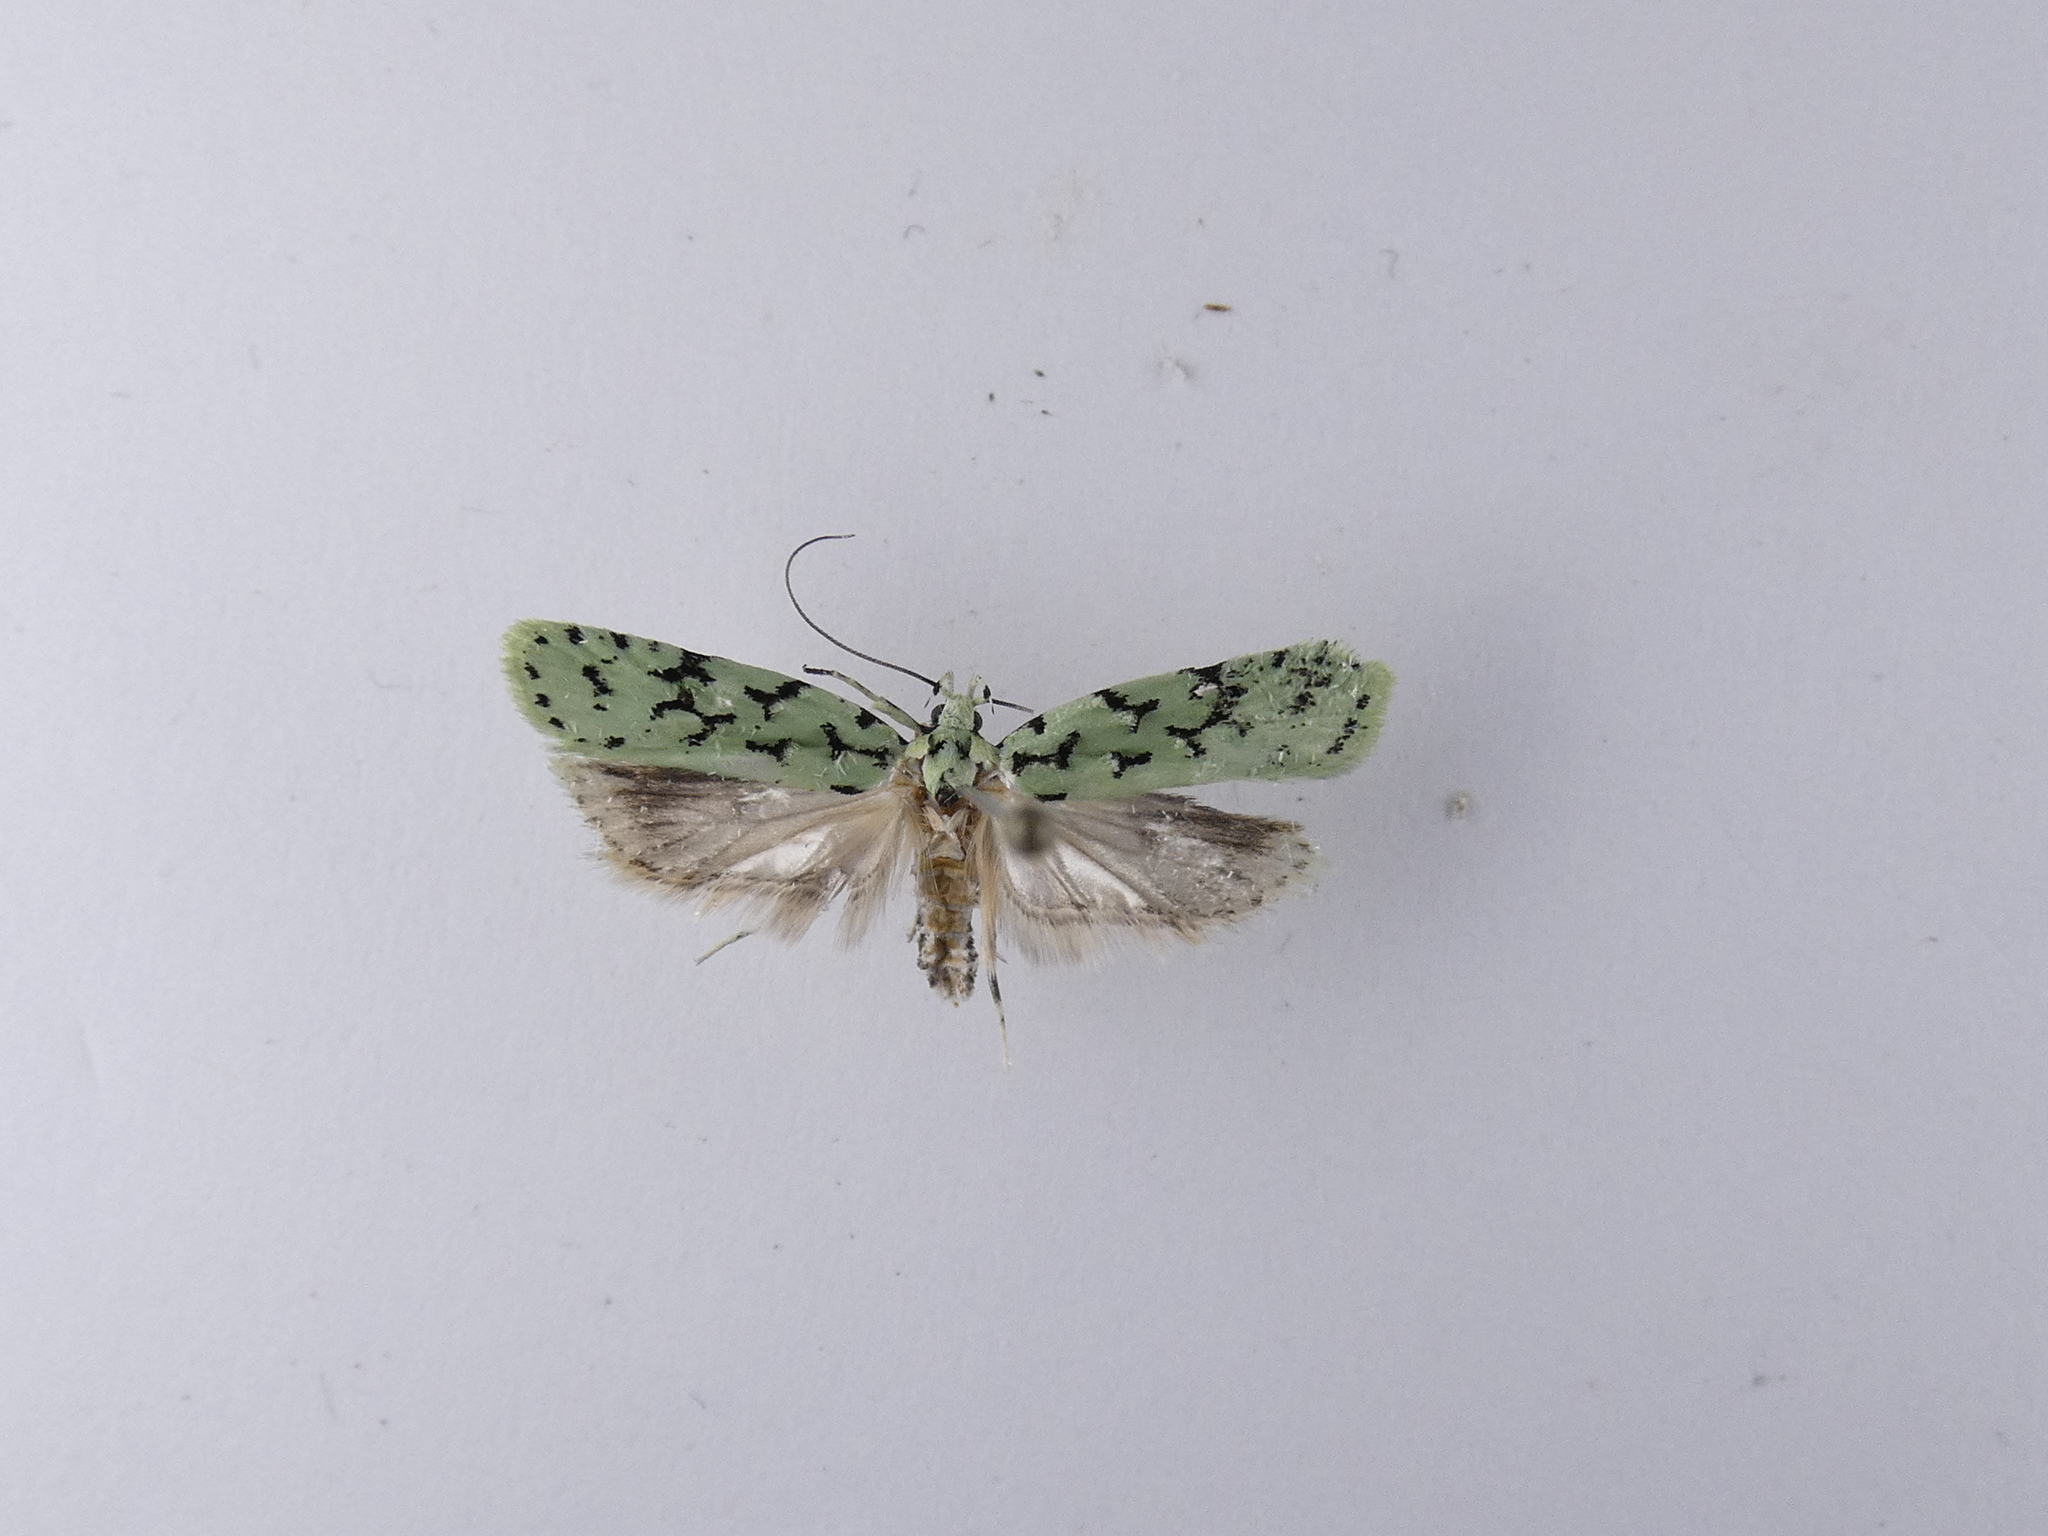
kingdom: Animalia
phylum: Arthropoda
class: Insecta
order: Lepidoptera
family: Oecophoridae
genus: Izatha
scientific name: Izatha huttoni
